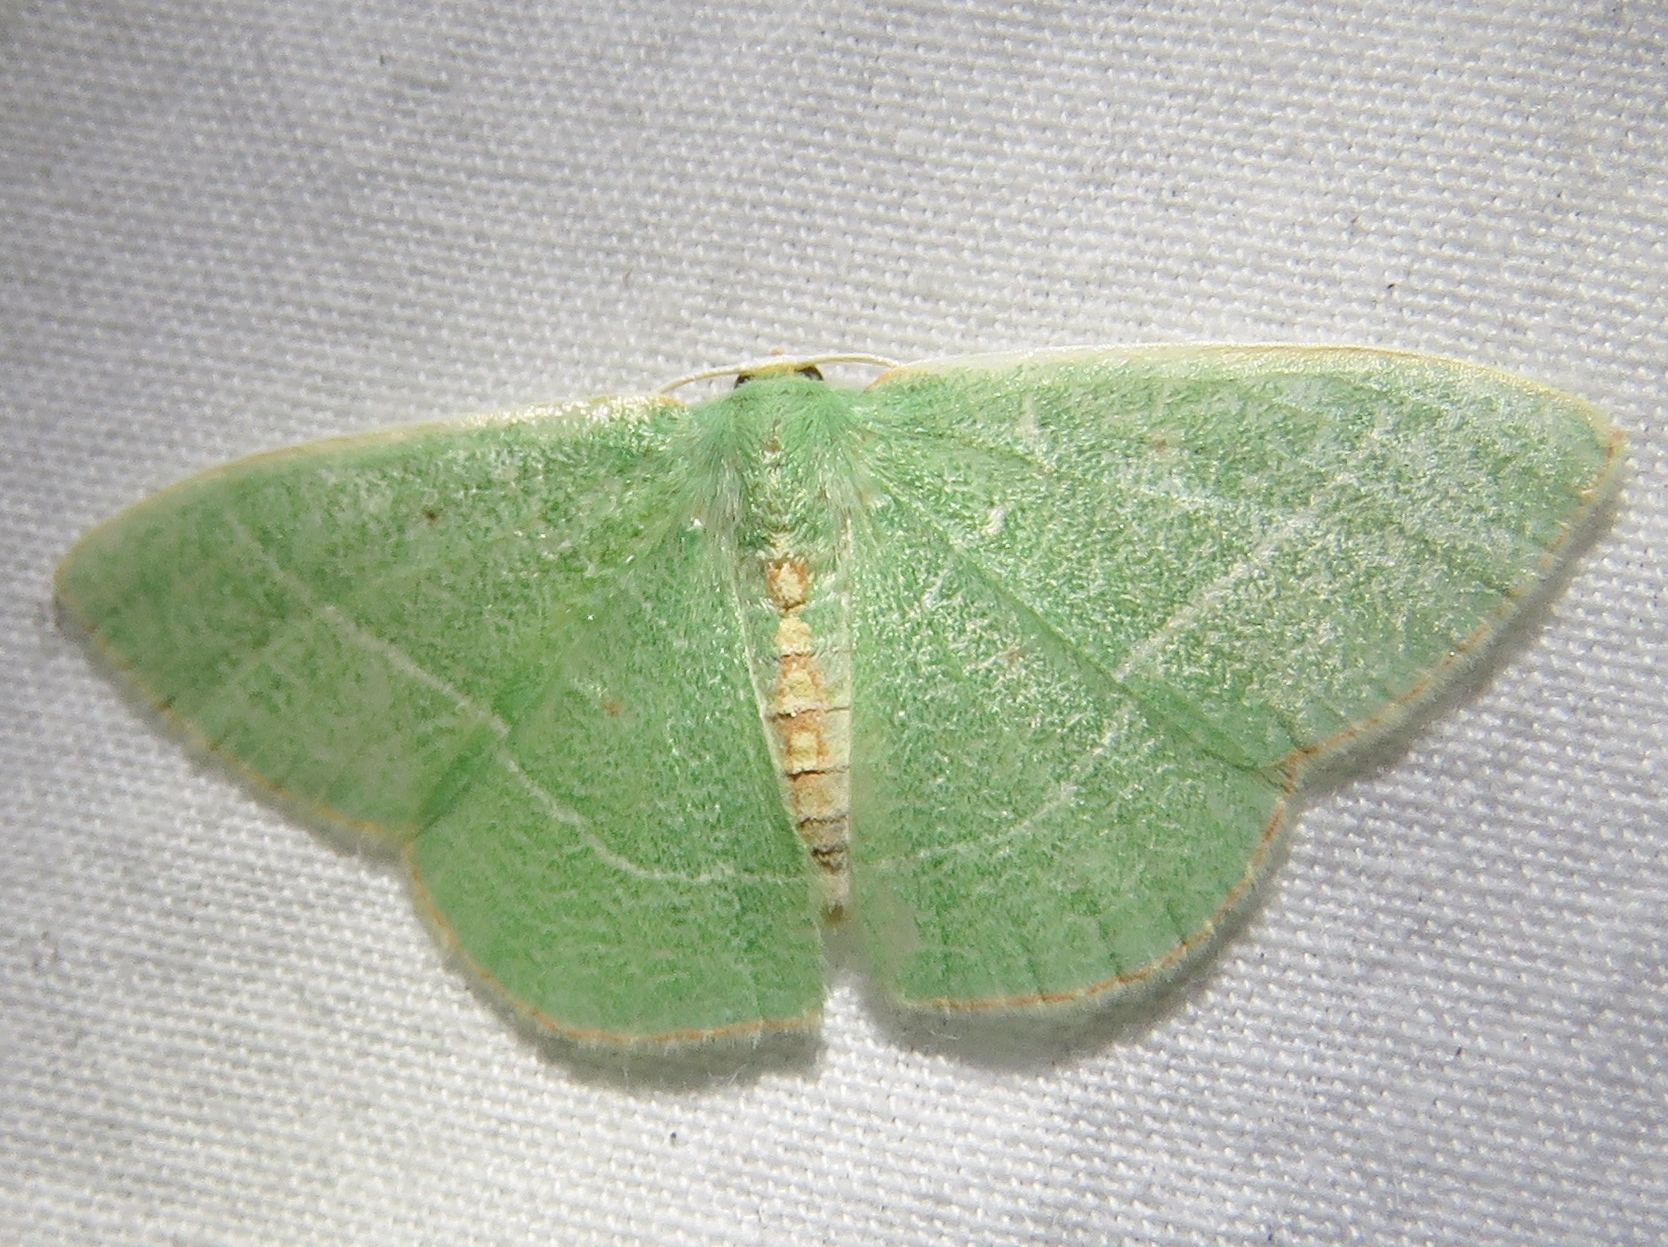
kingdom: Animalia
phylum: Arthropoda
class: Insecta
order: Lepidoptera
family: Geometridae
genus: Nemoria
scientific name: Nemoria bifilata
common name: White-barred emerald moth
